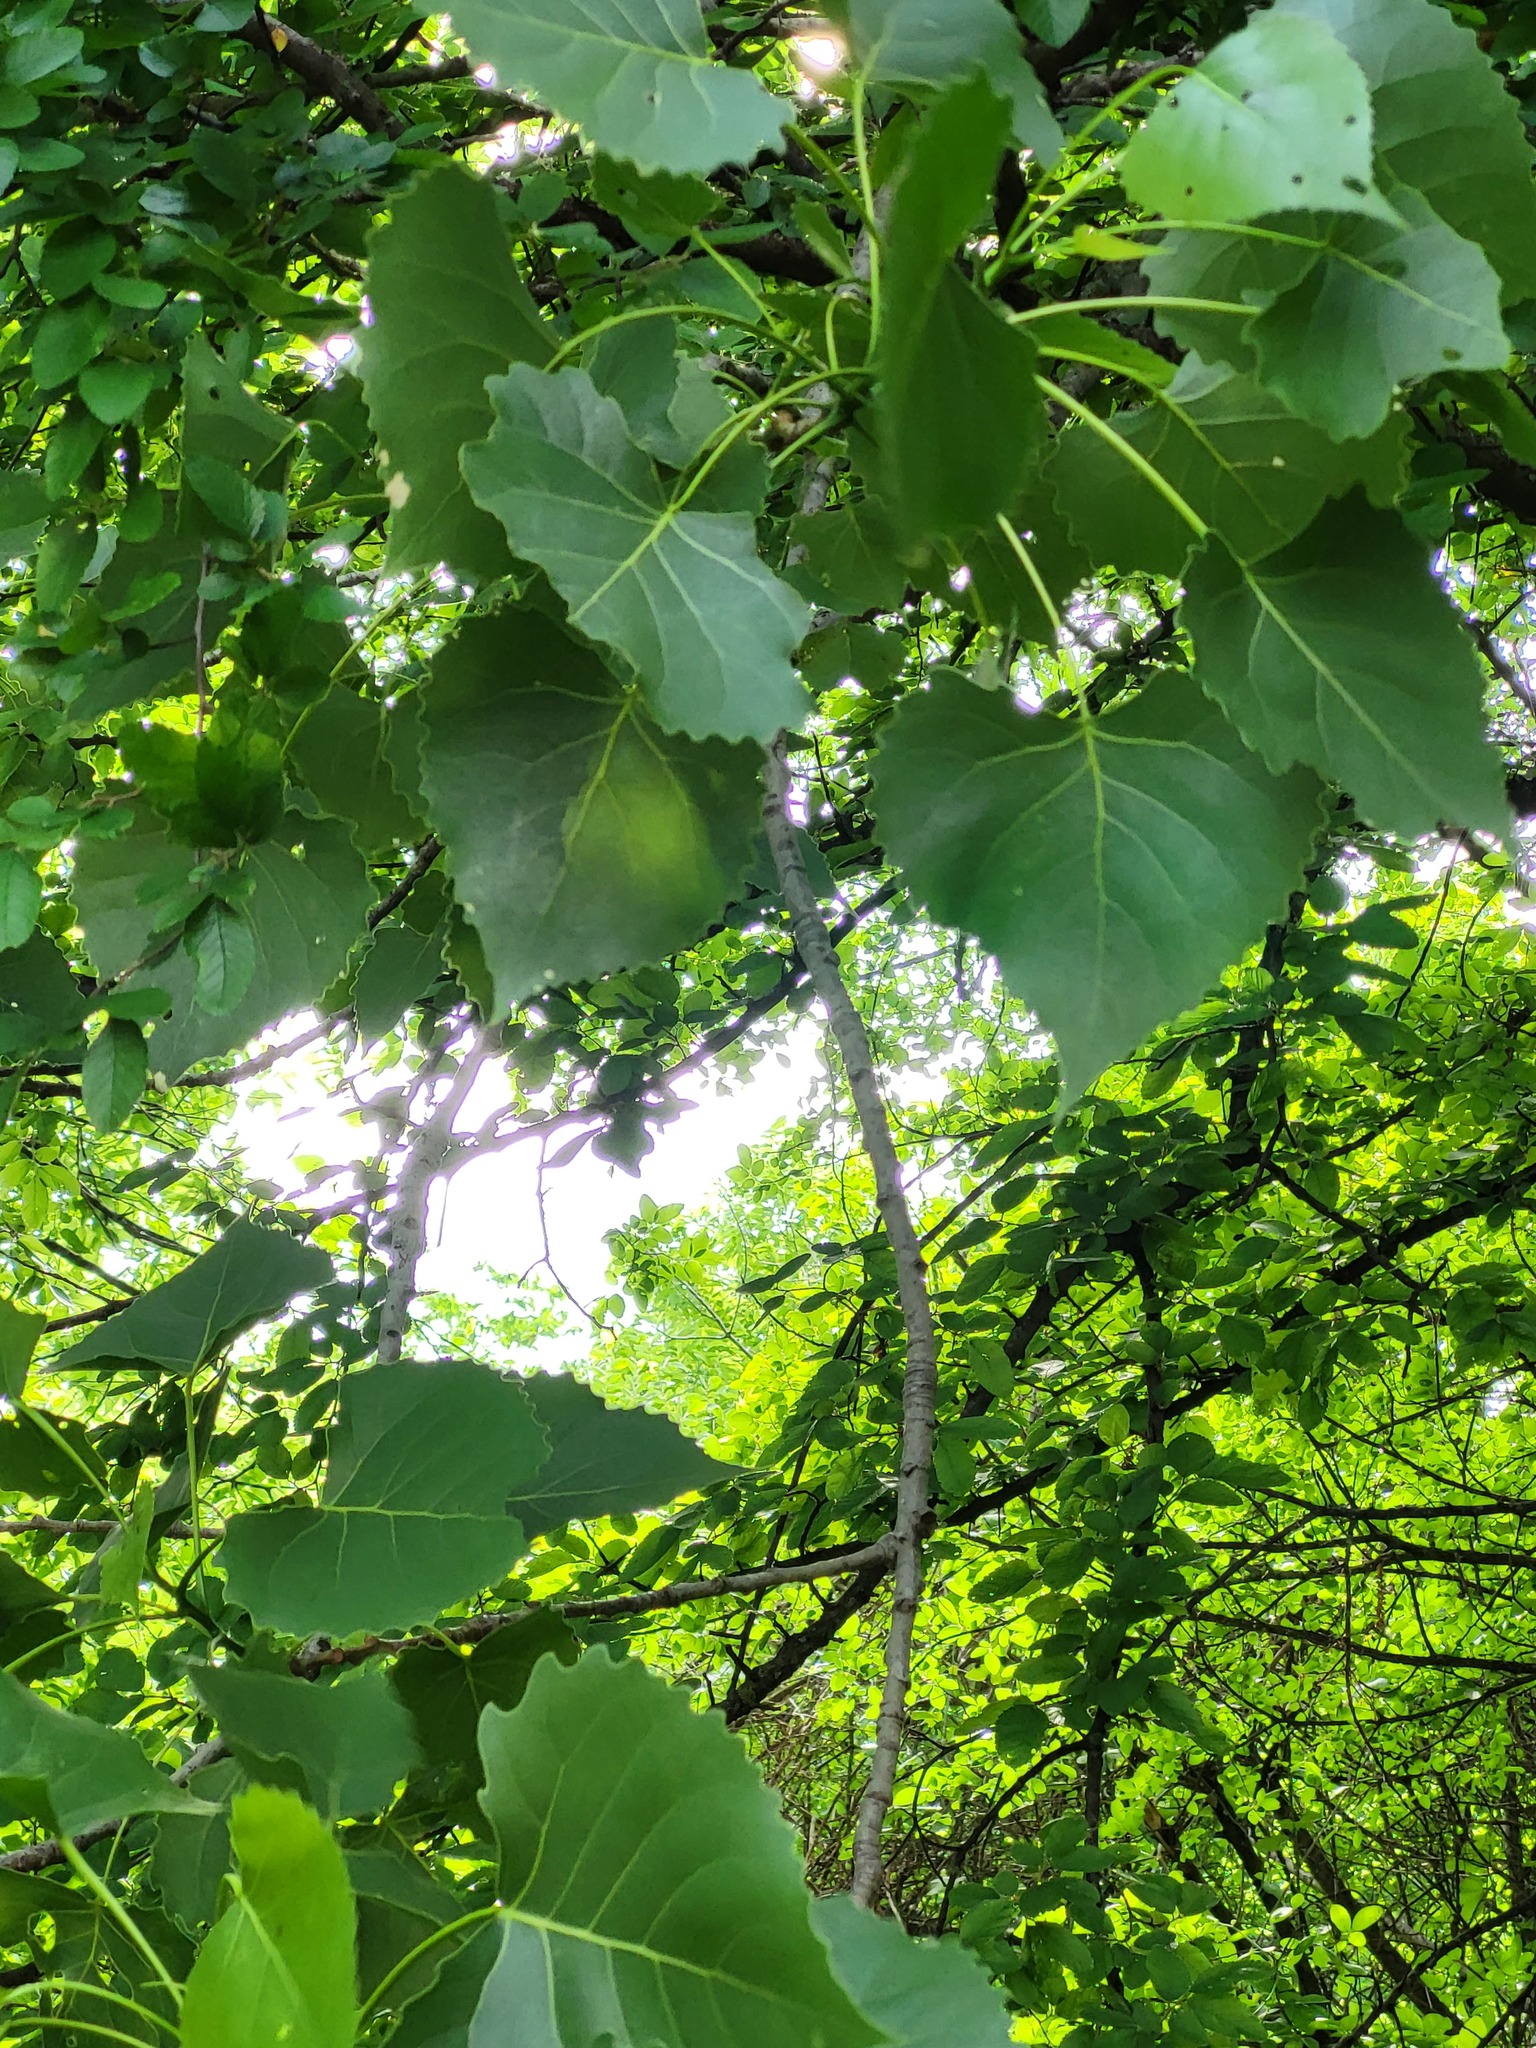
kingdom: Plantae
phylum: Tracheophyta
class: Magnoliopsida
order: Malpighiales
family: Salicaceae
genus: Populus
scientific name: Populus deltoides
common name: Eastern cottonwood
